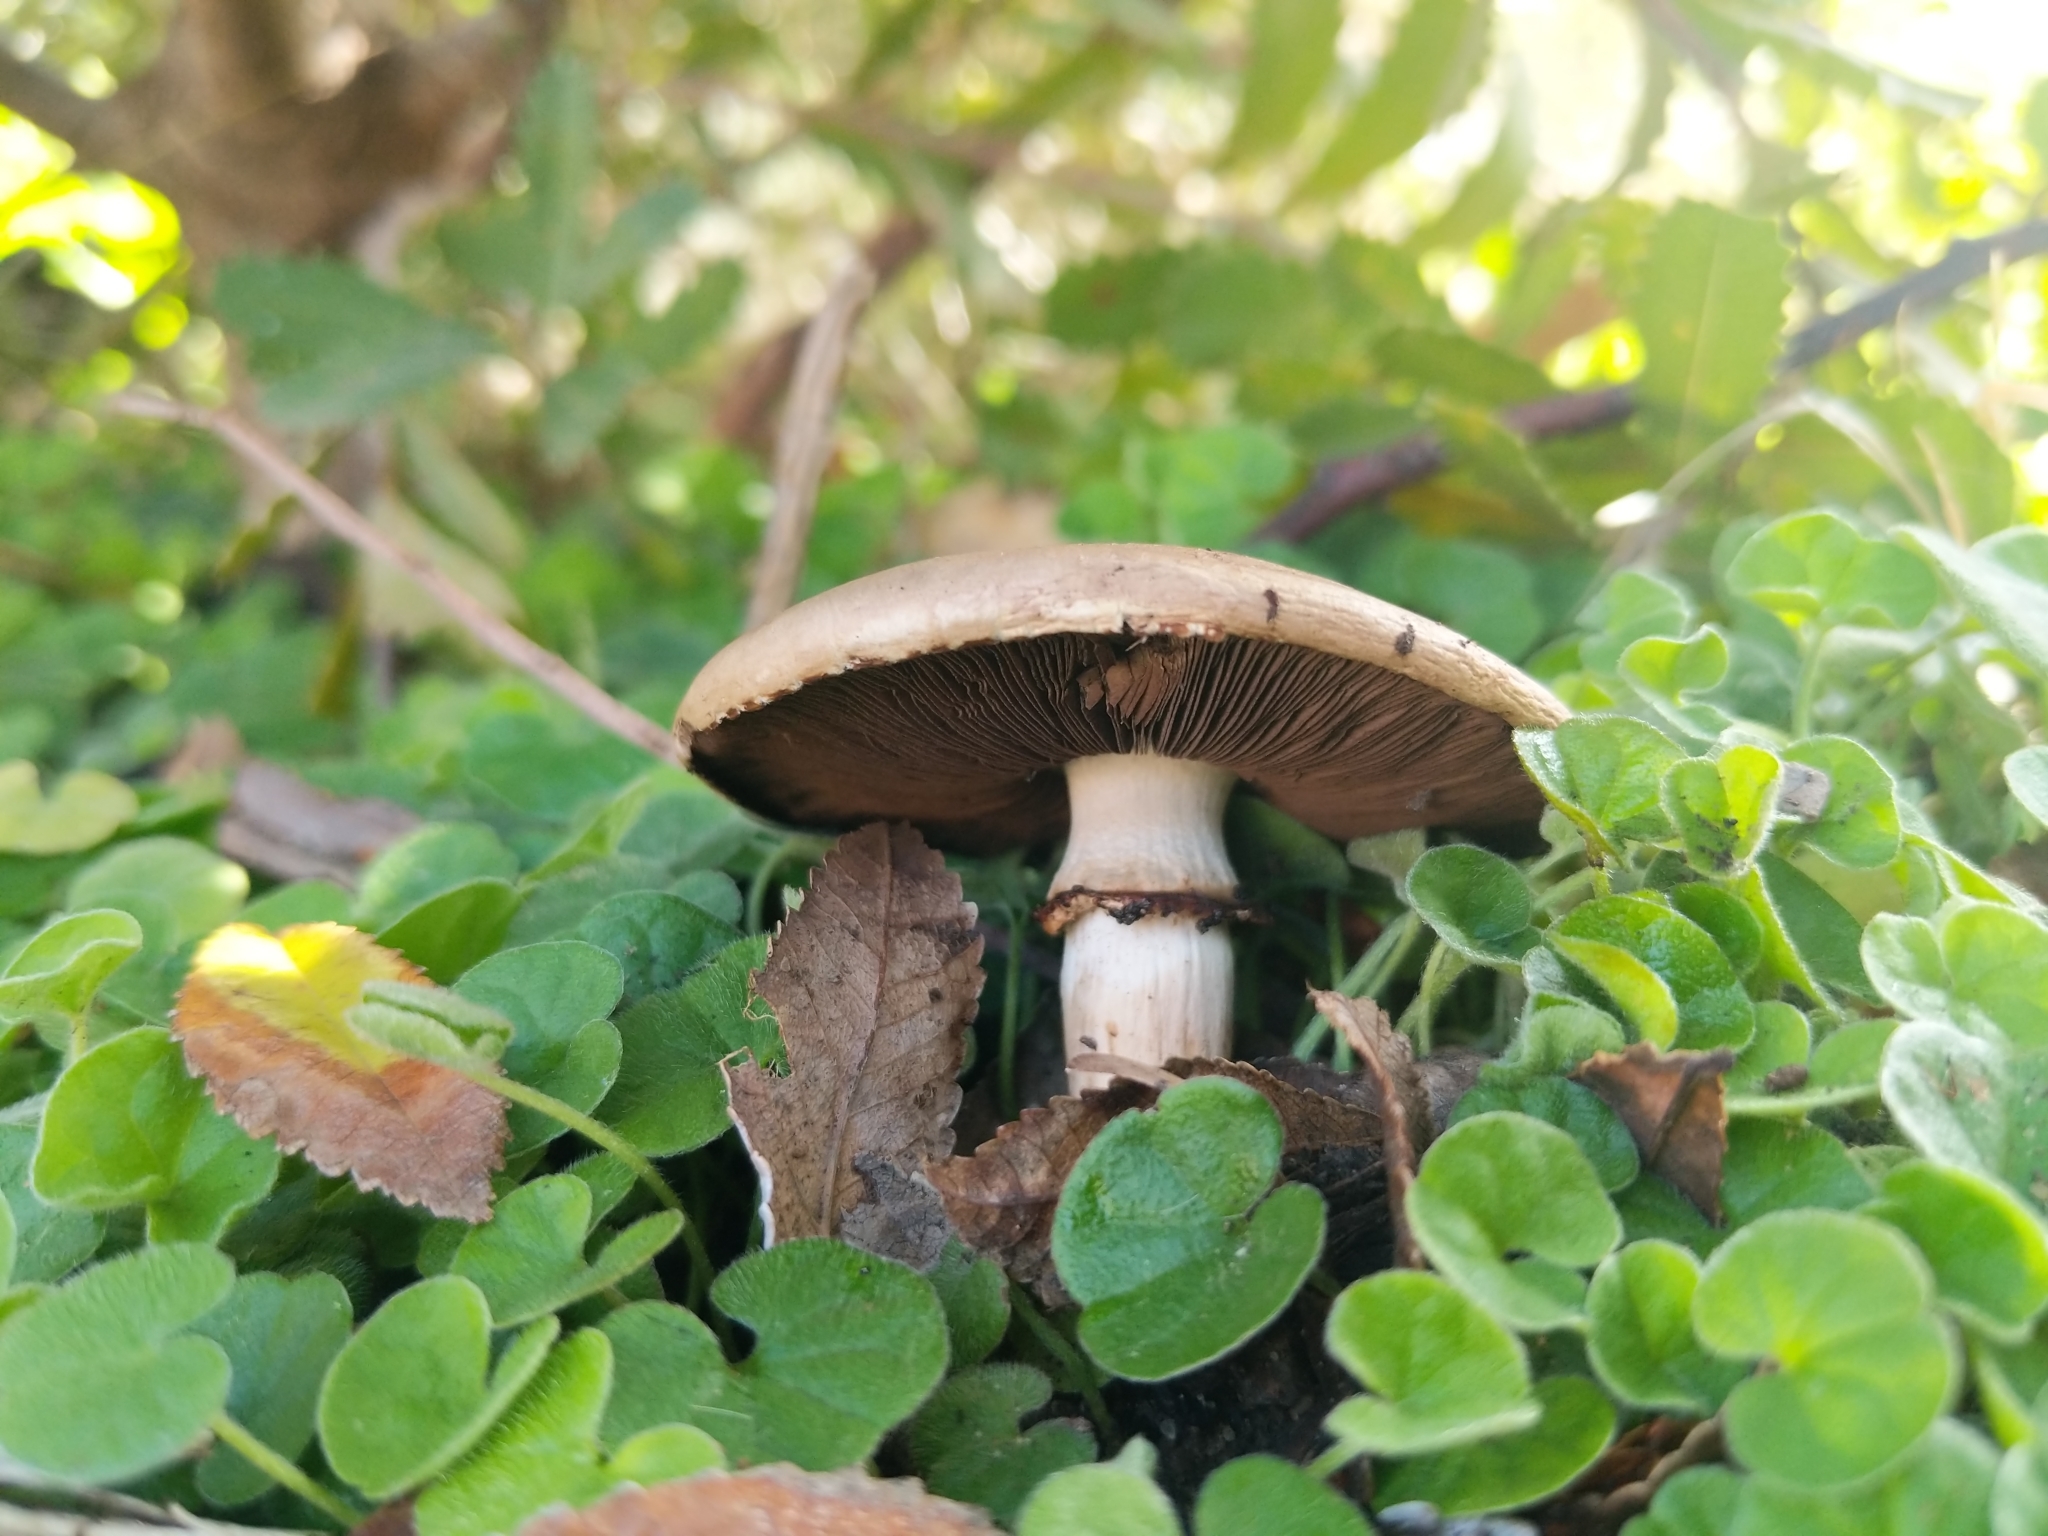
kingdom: Fungi
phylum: Basidiomycota
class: Agaricomycetes
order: Agaricales
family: Agaricaceae
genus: Agaricus
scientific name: Agaricus xanthodermus
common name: Yellow stainer
